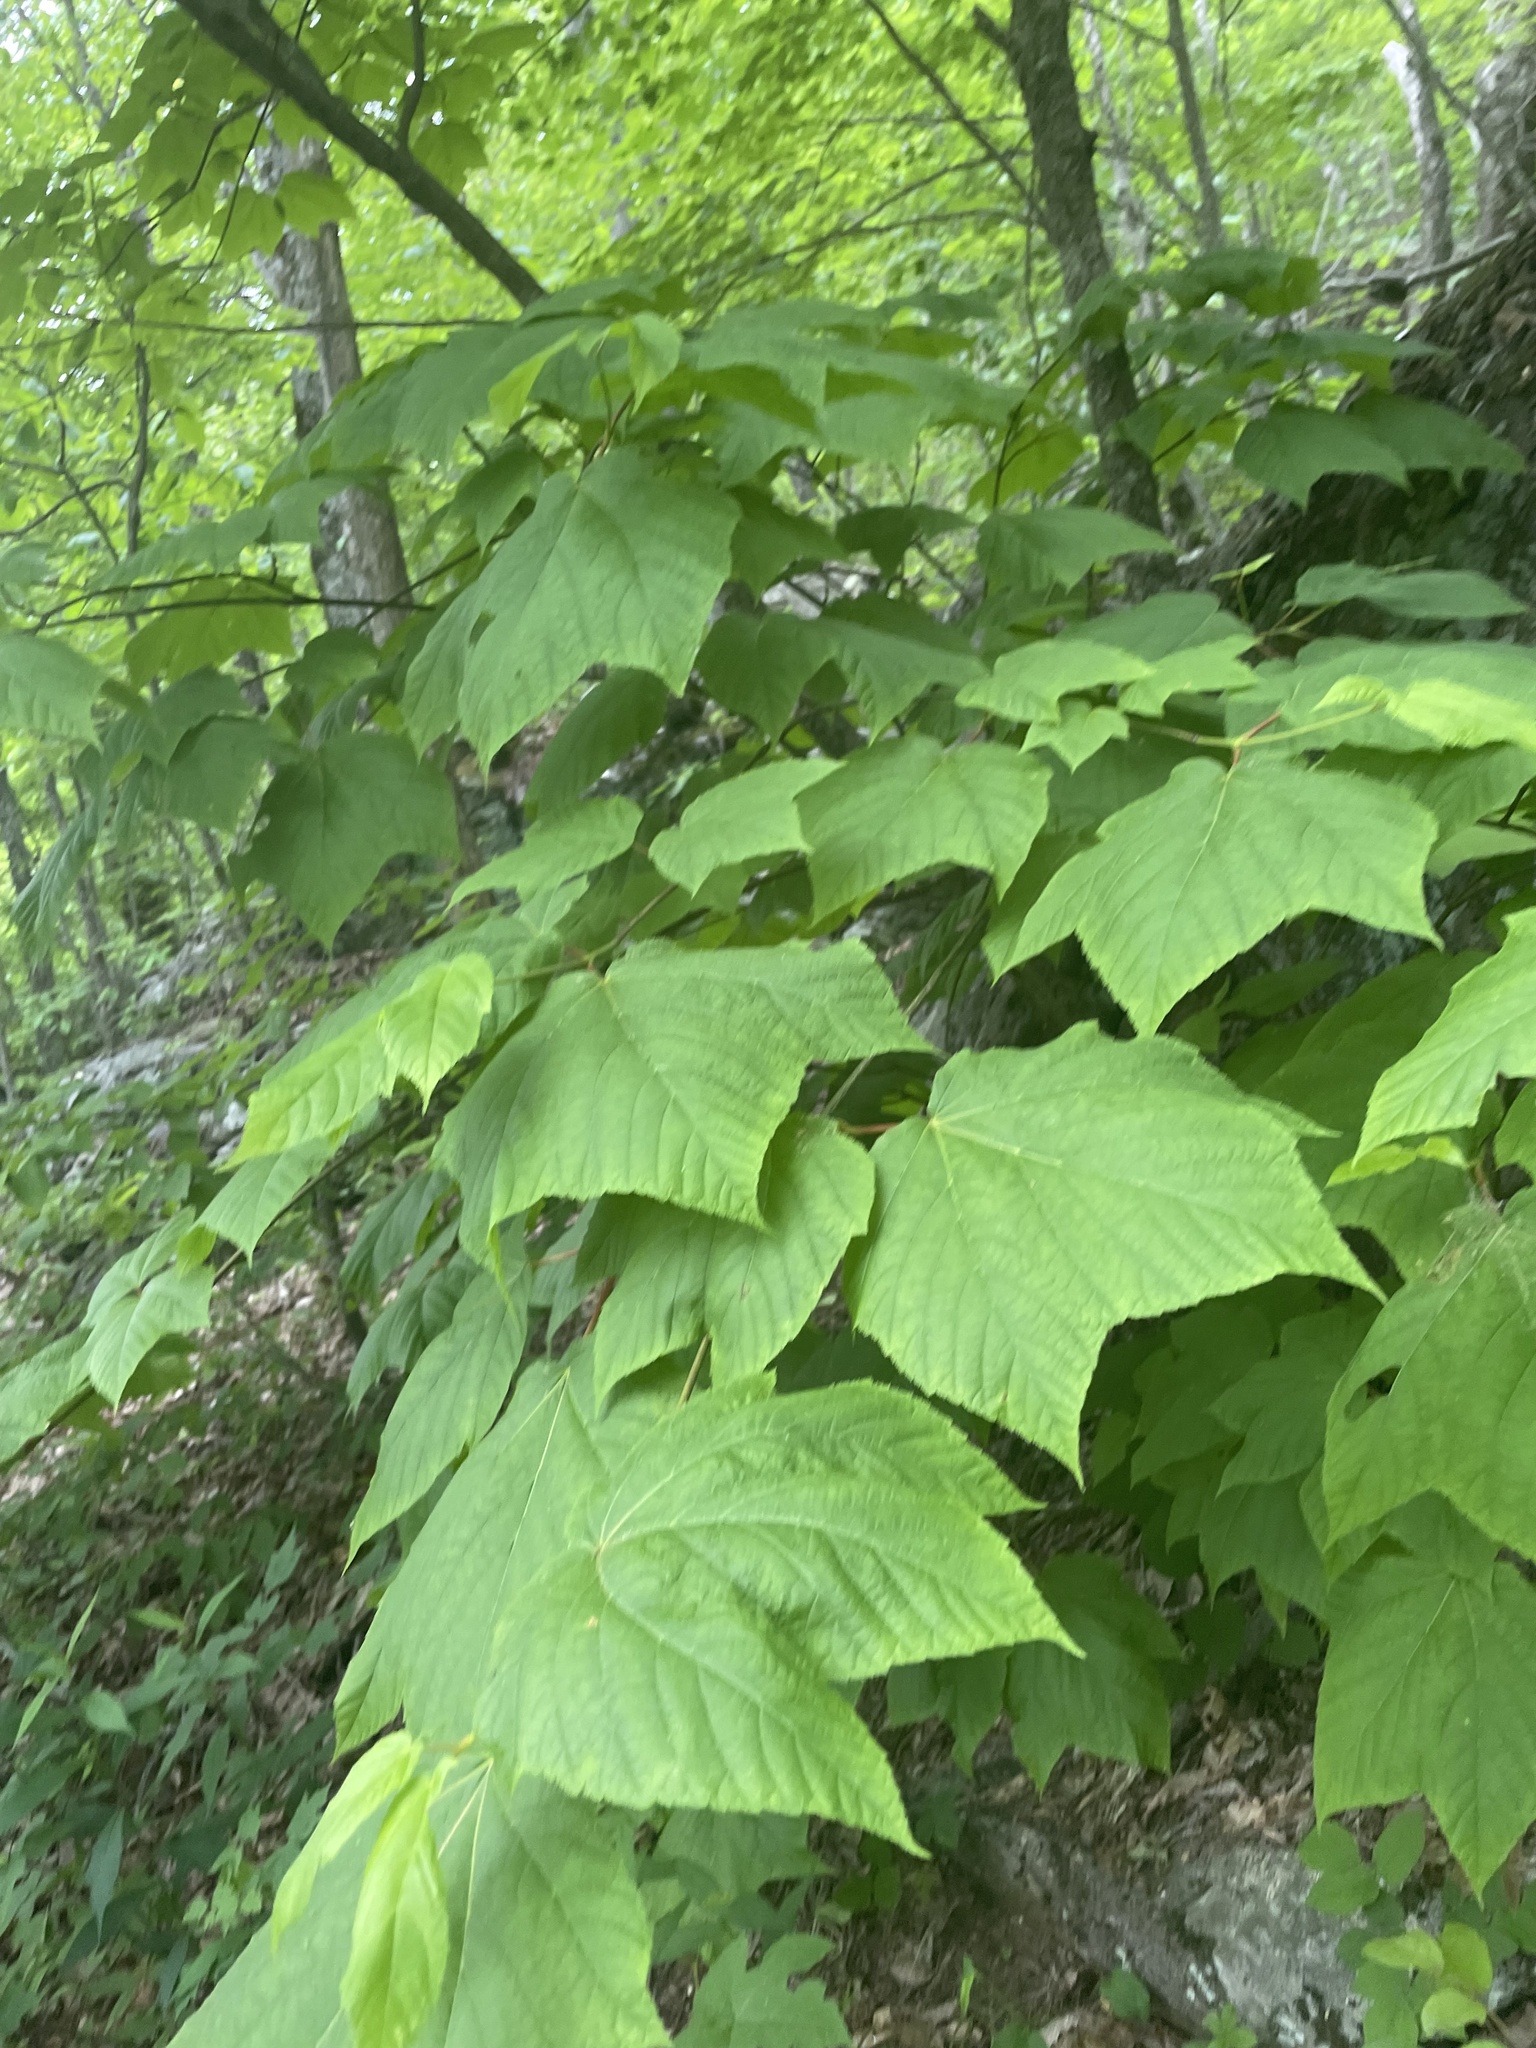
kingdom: Plantae
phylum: Tracheophyta
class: Magnoliopsida
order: Sapindales
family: Sapindaceae
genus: Acer
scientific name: Acer pensylvanicum
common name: Moosewood
